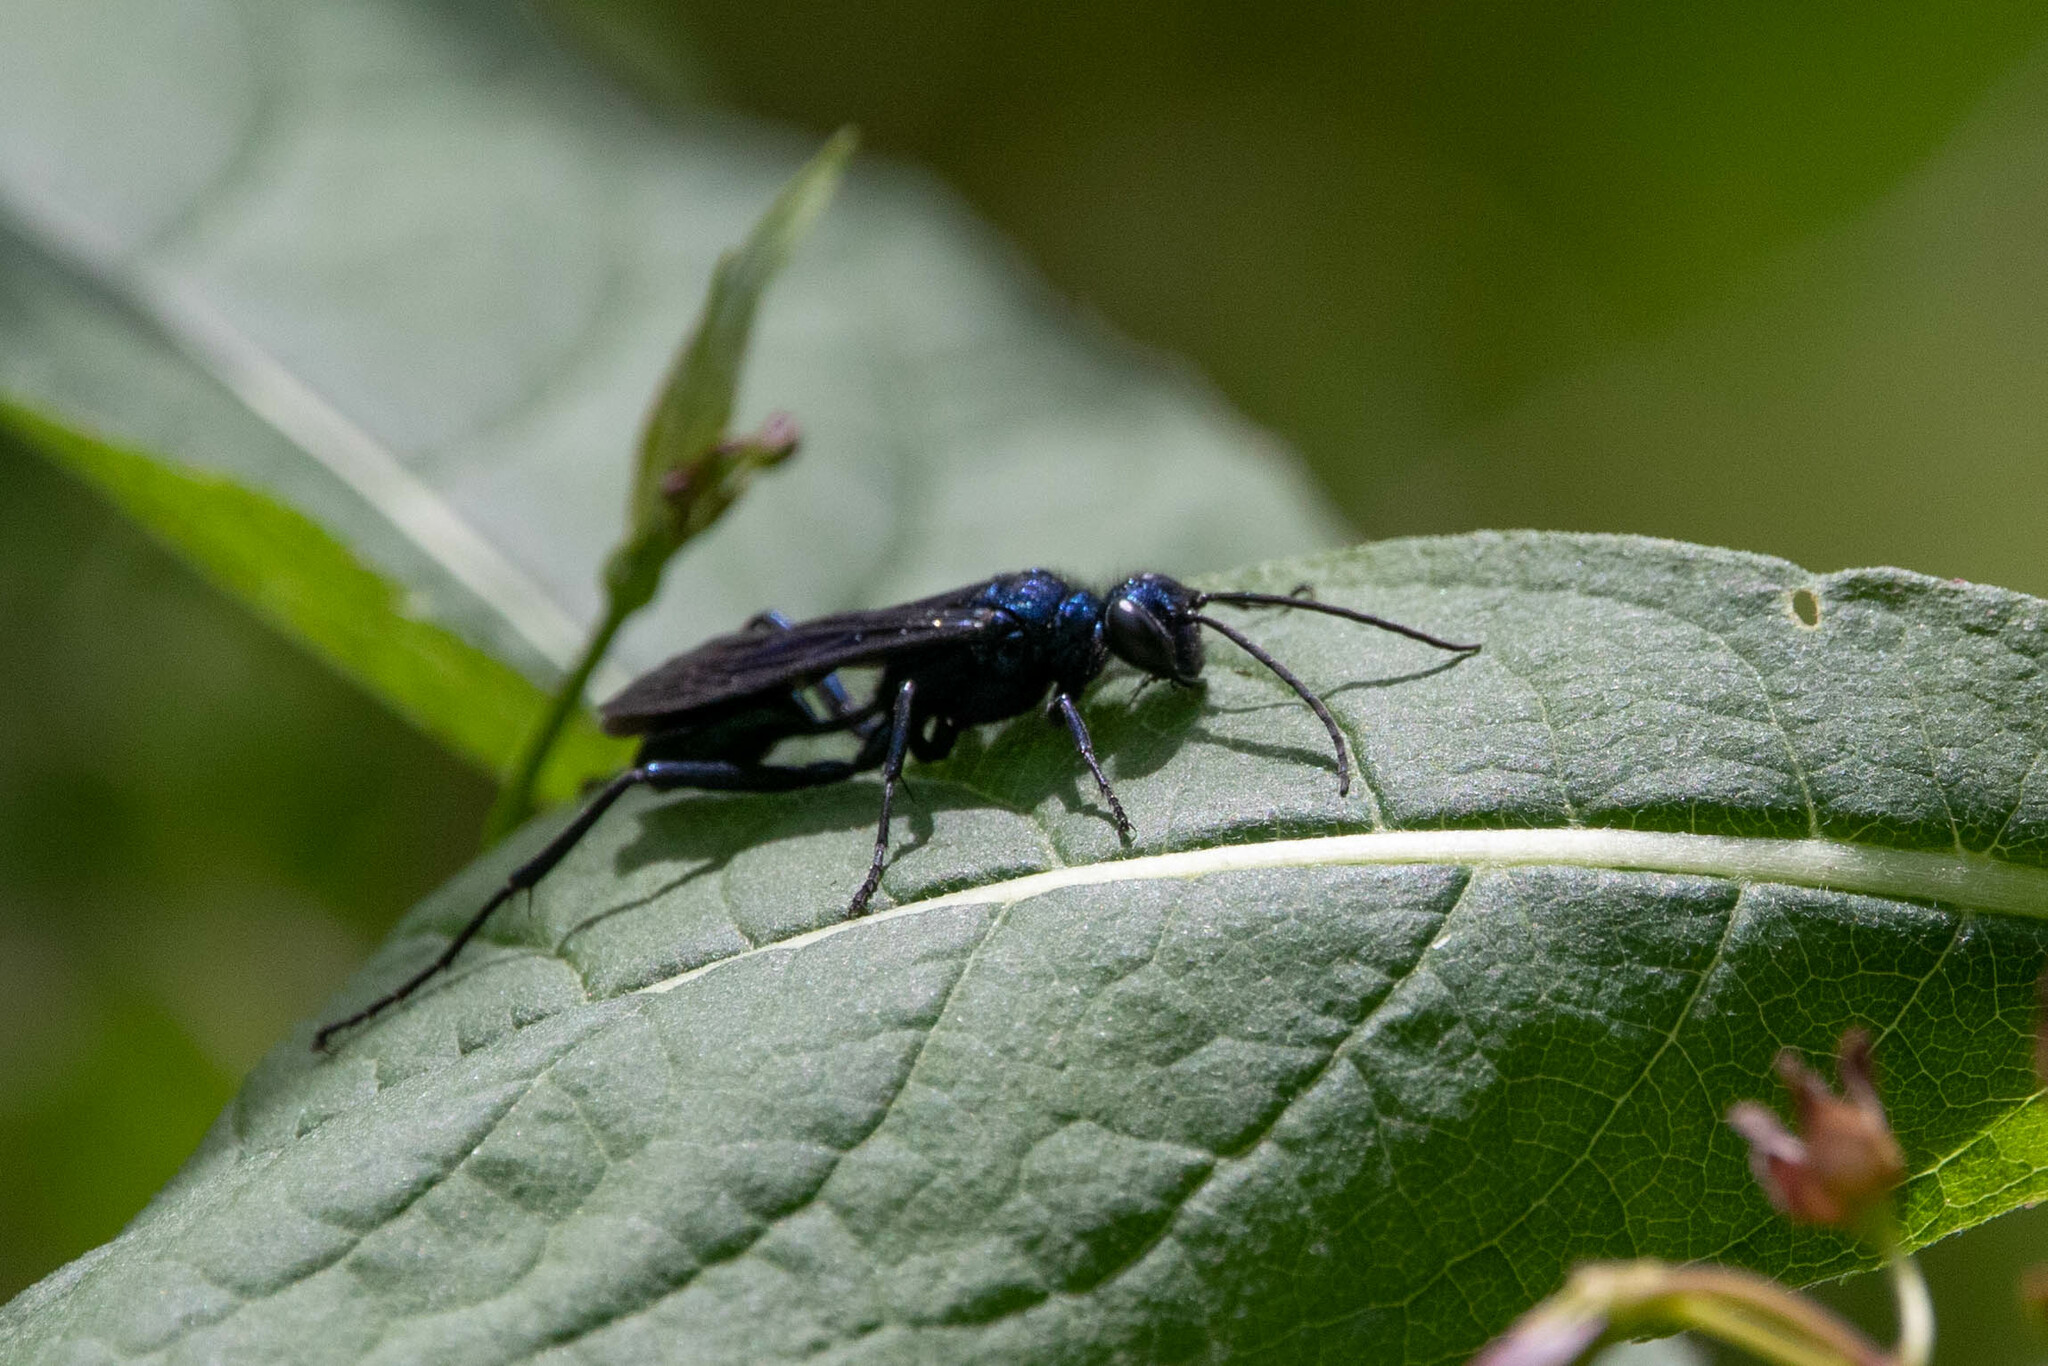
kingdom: Animalia
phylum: Arthropoda
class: Insecta
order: Hymenoptera
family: Sphecidae
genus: Chalybion
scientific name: Chalybion californicum
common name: Mud dauber
